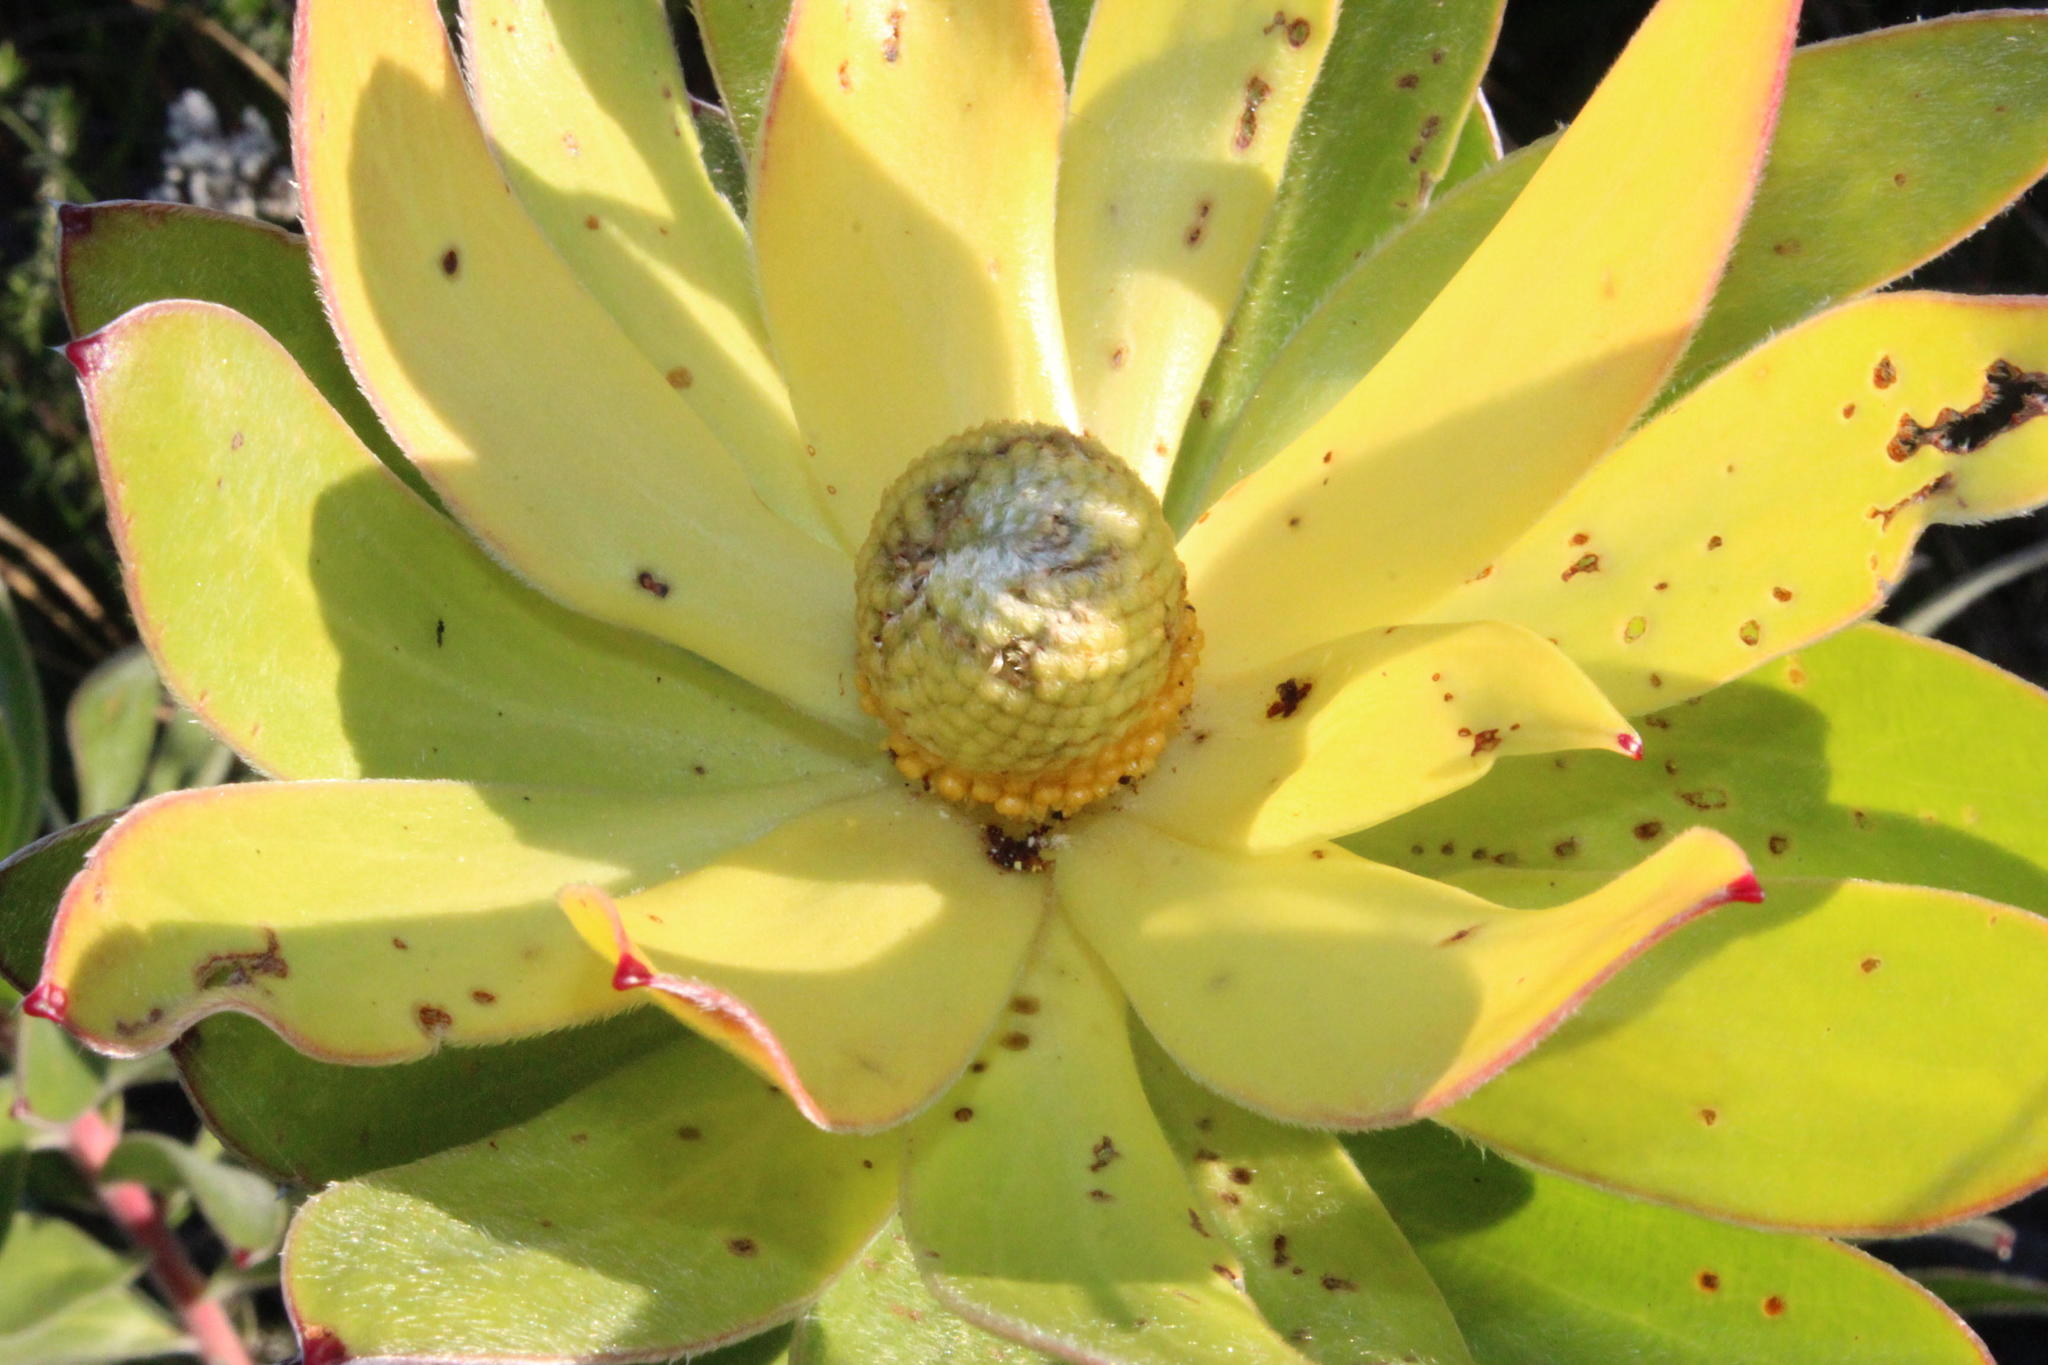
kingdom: Plantae
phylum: Tracheophyta
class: Magnoliopsida
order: Proteales
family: Proteaceae
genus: Leucadendron
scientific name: Leucadendron laureolum
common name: Golden sunshinebush
